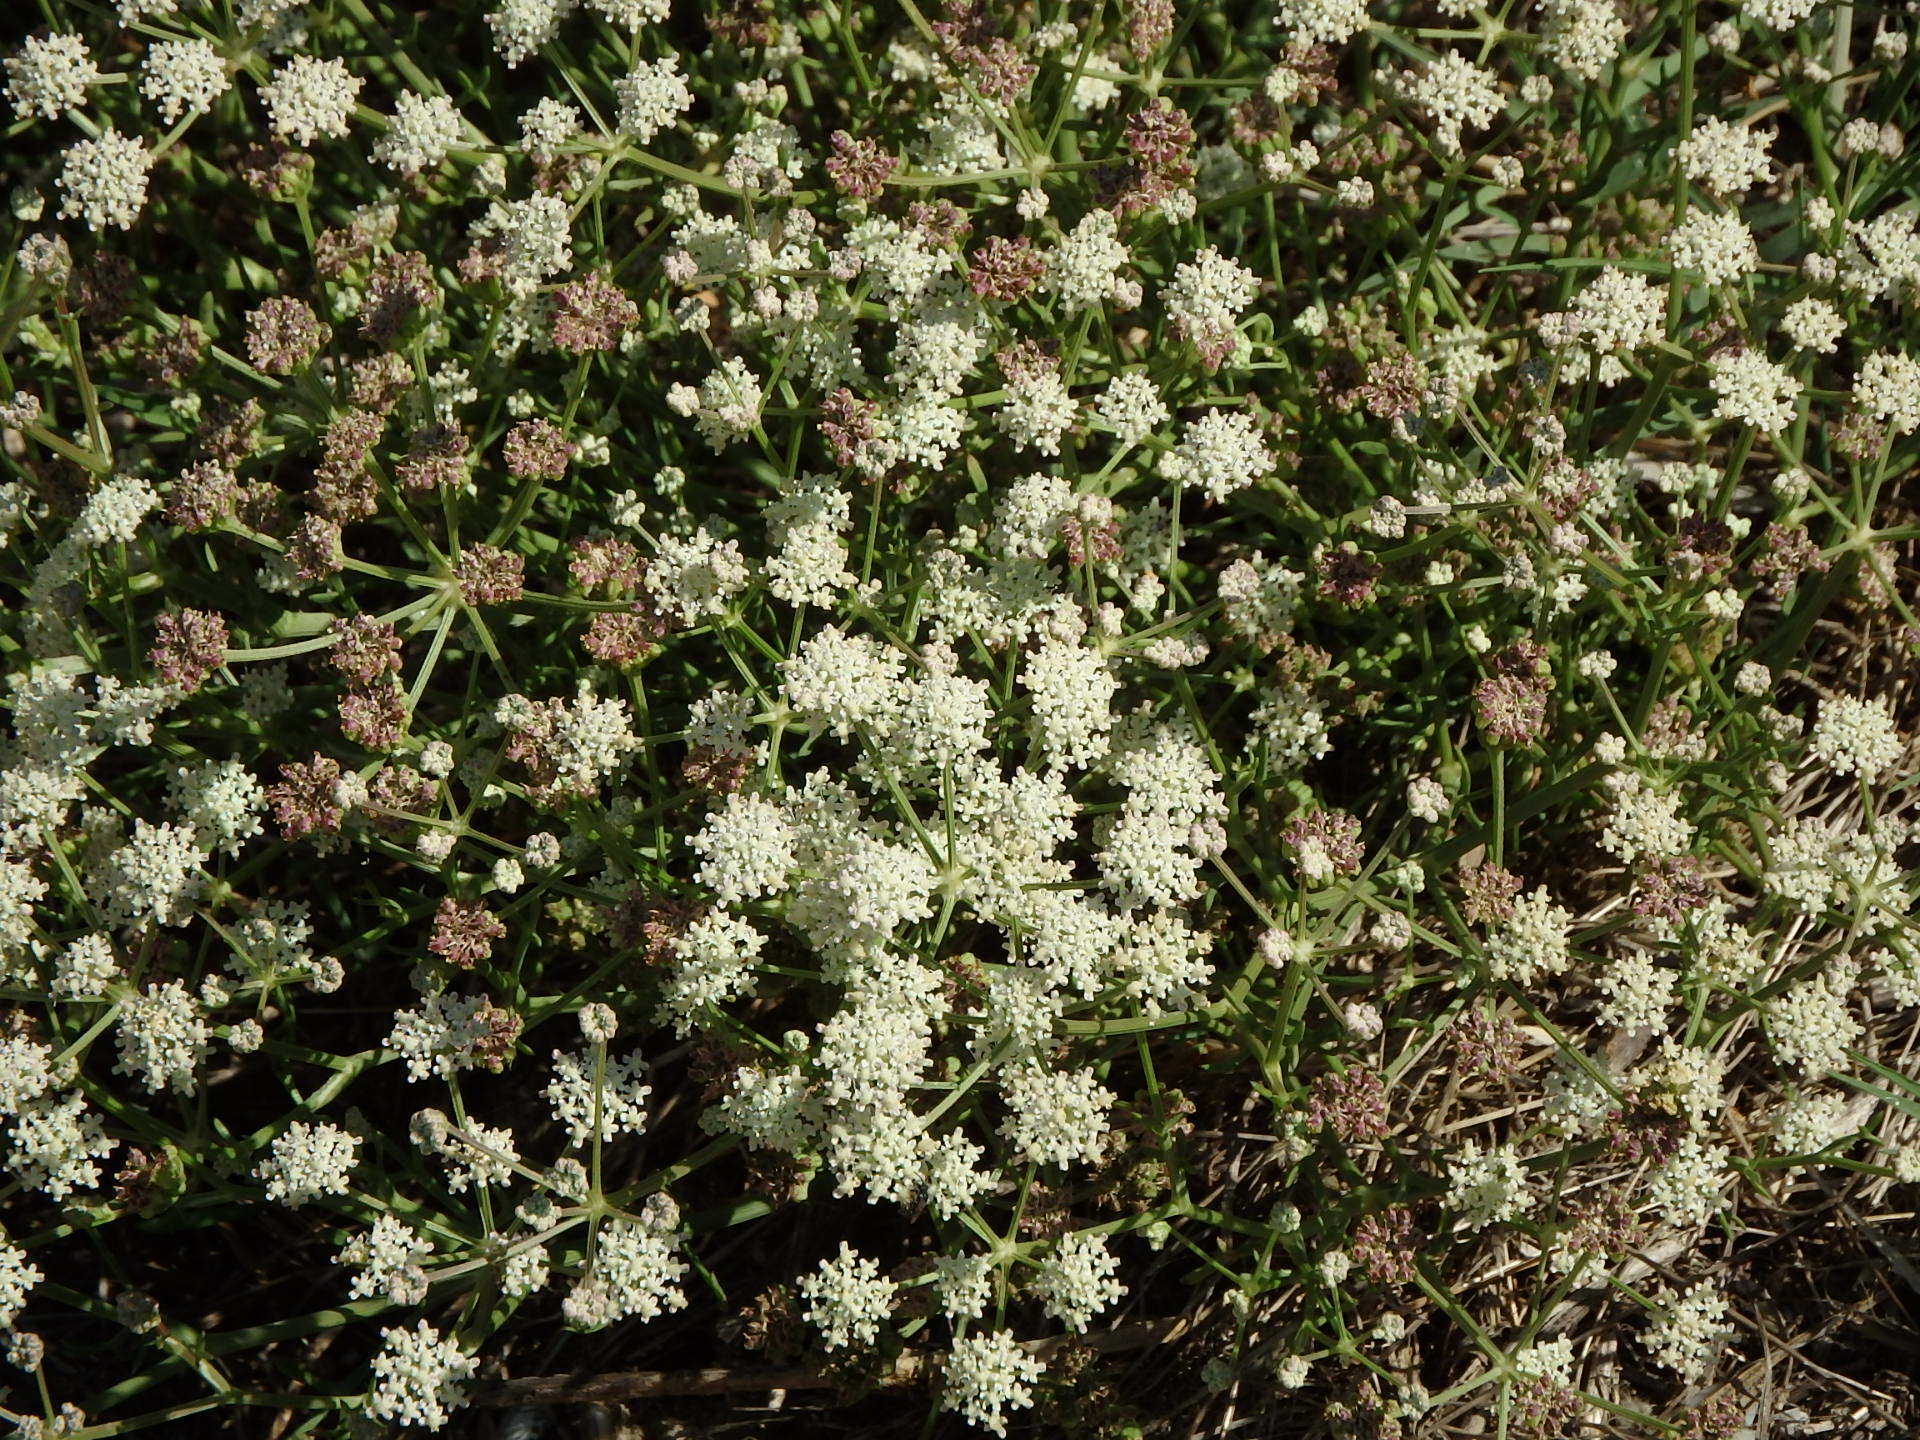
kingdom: Plantae
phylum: Tracheophyta
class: Magnoliopsida
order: Apiales
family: Apiaceae
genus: Seseli
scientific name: Seseli tortuosum
